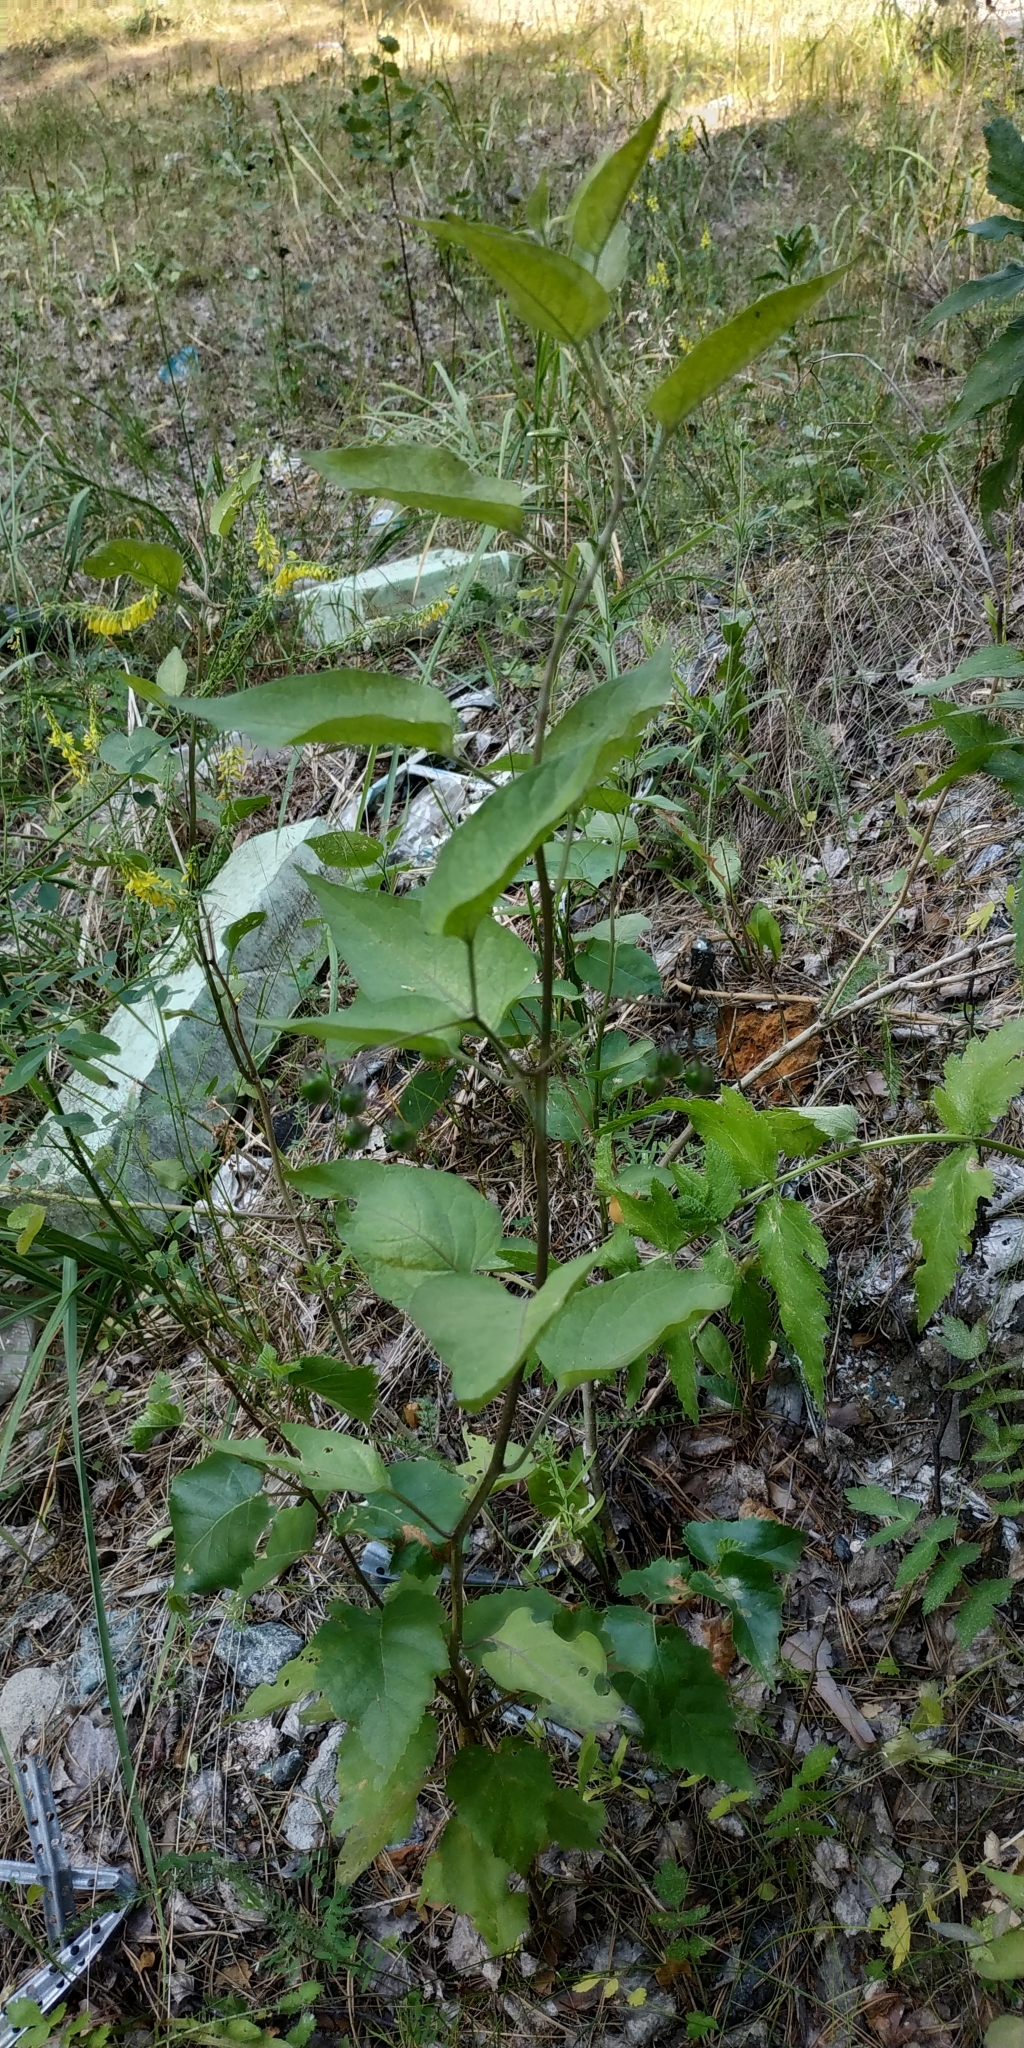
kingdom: Plantae
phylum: Tracheophyta
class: Magnoliopsida
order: Solanales
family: Solanaceae
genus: Solanum
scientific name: Solanum dulcamara
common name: Climbing nightshade
